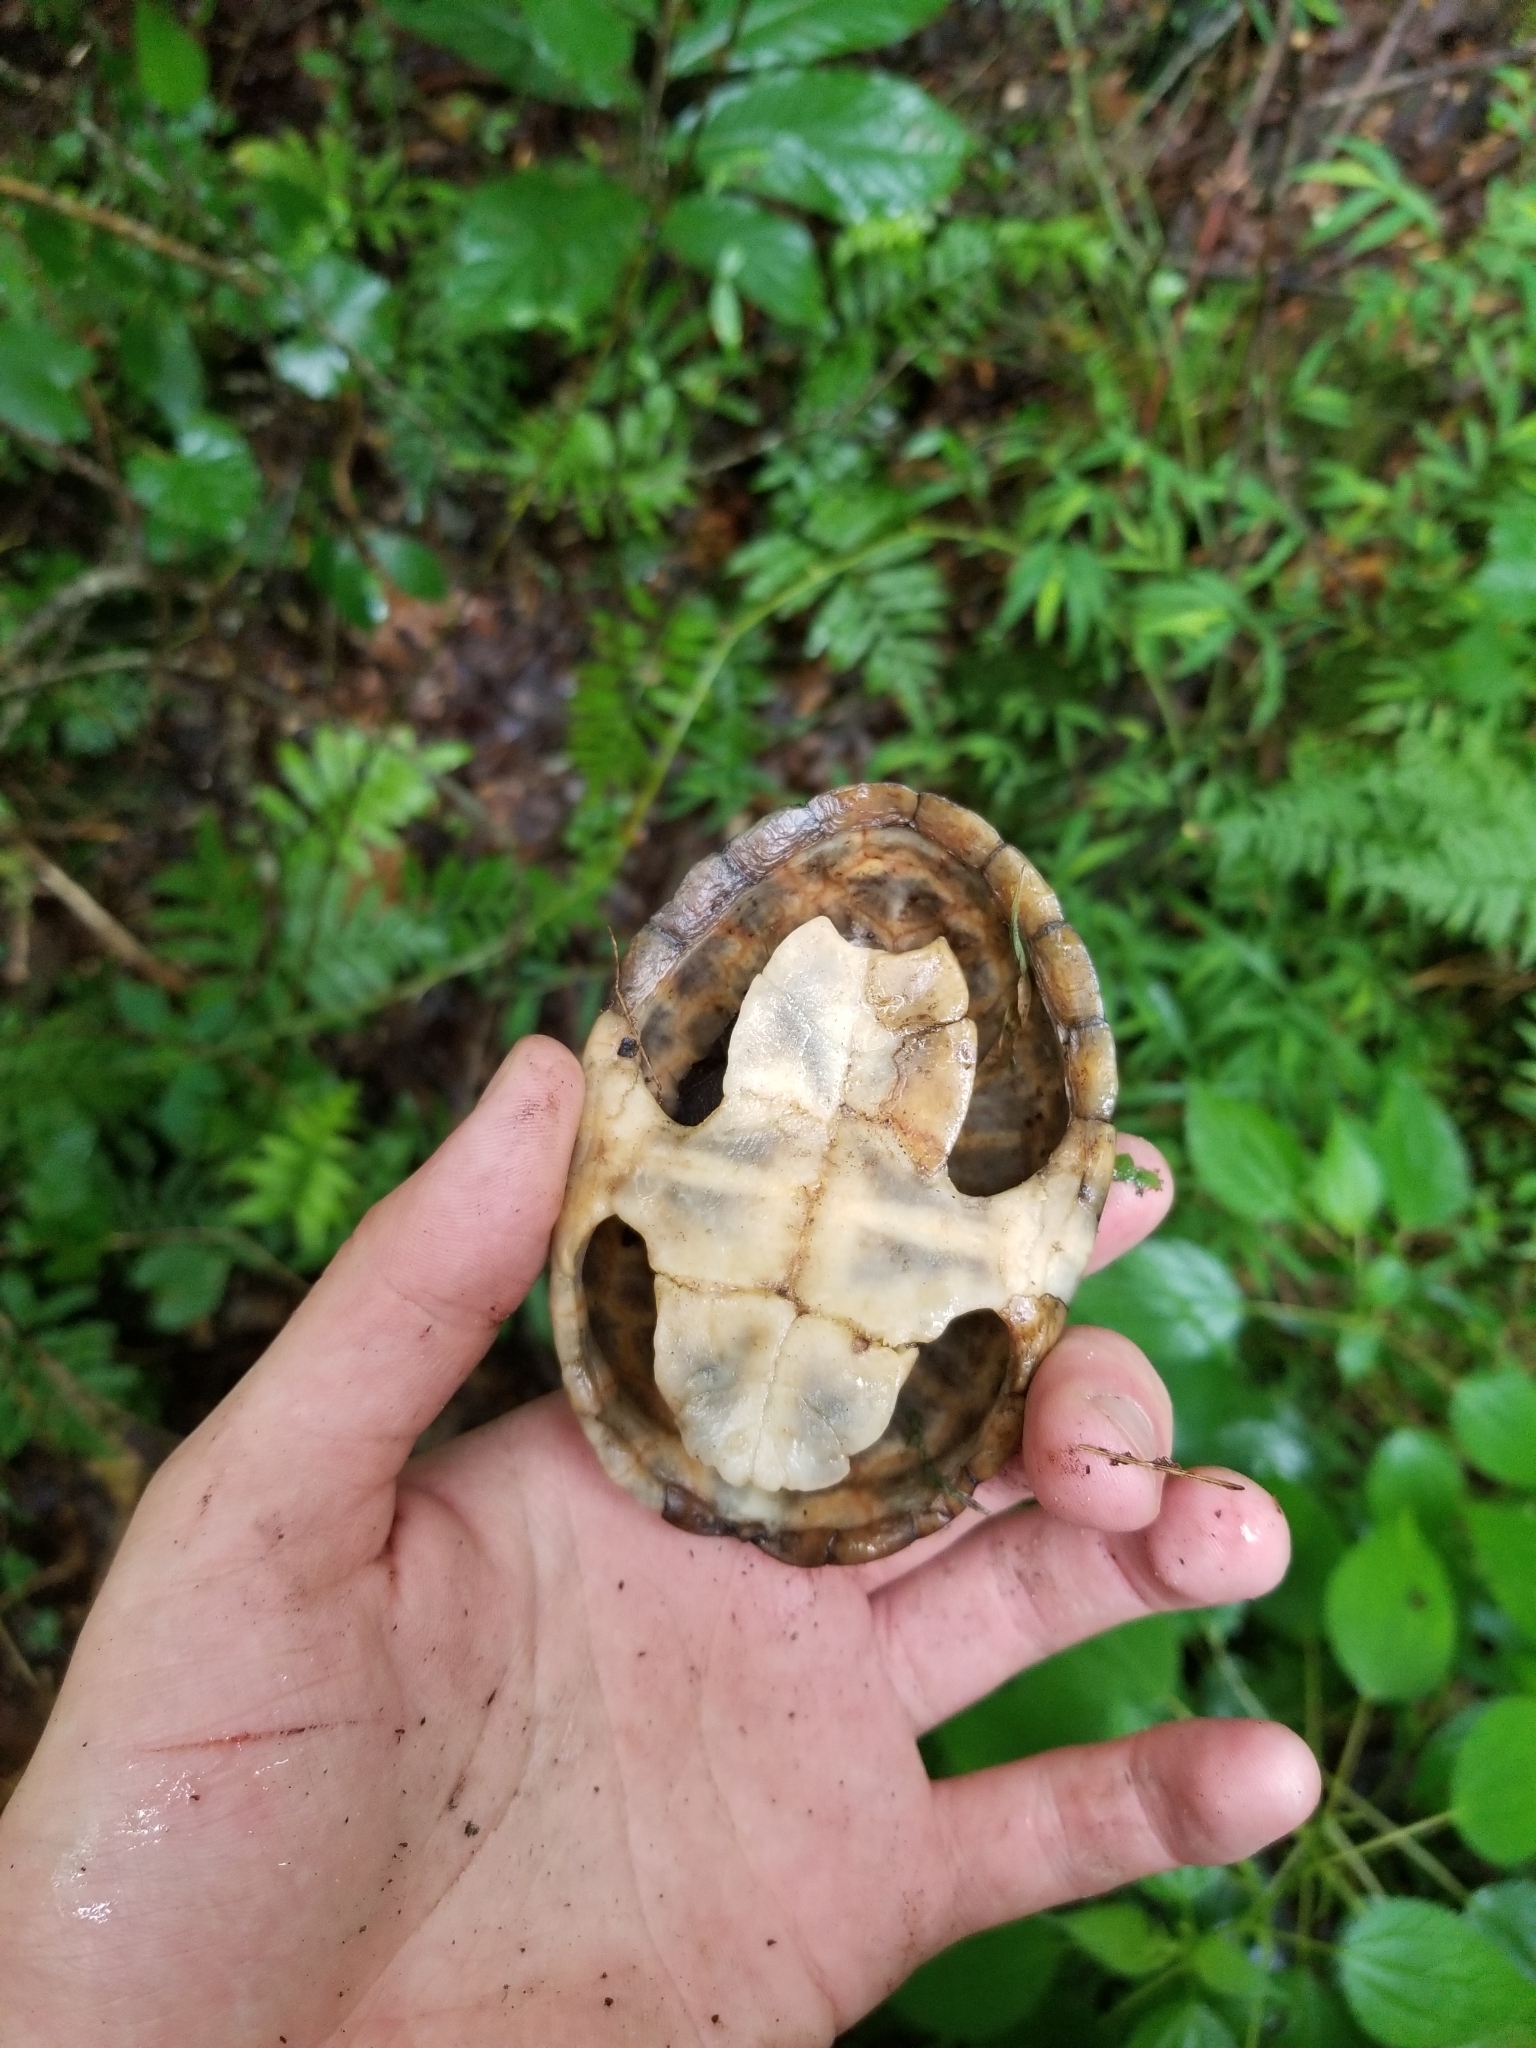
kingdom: Animalia
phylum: Chordata
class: Testudines
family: Kinosternidae
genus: Sternotherus
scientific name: Sternotherus odoratus
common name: Common musk turtle
